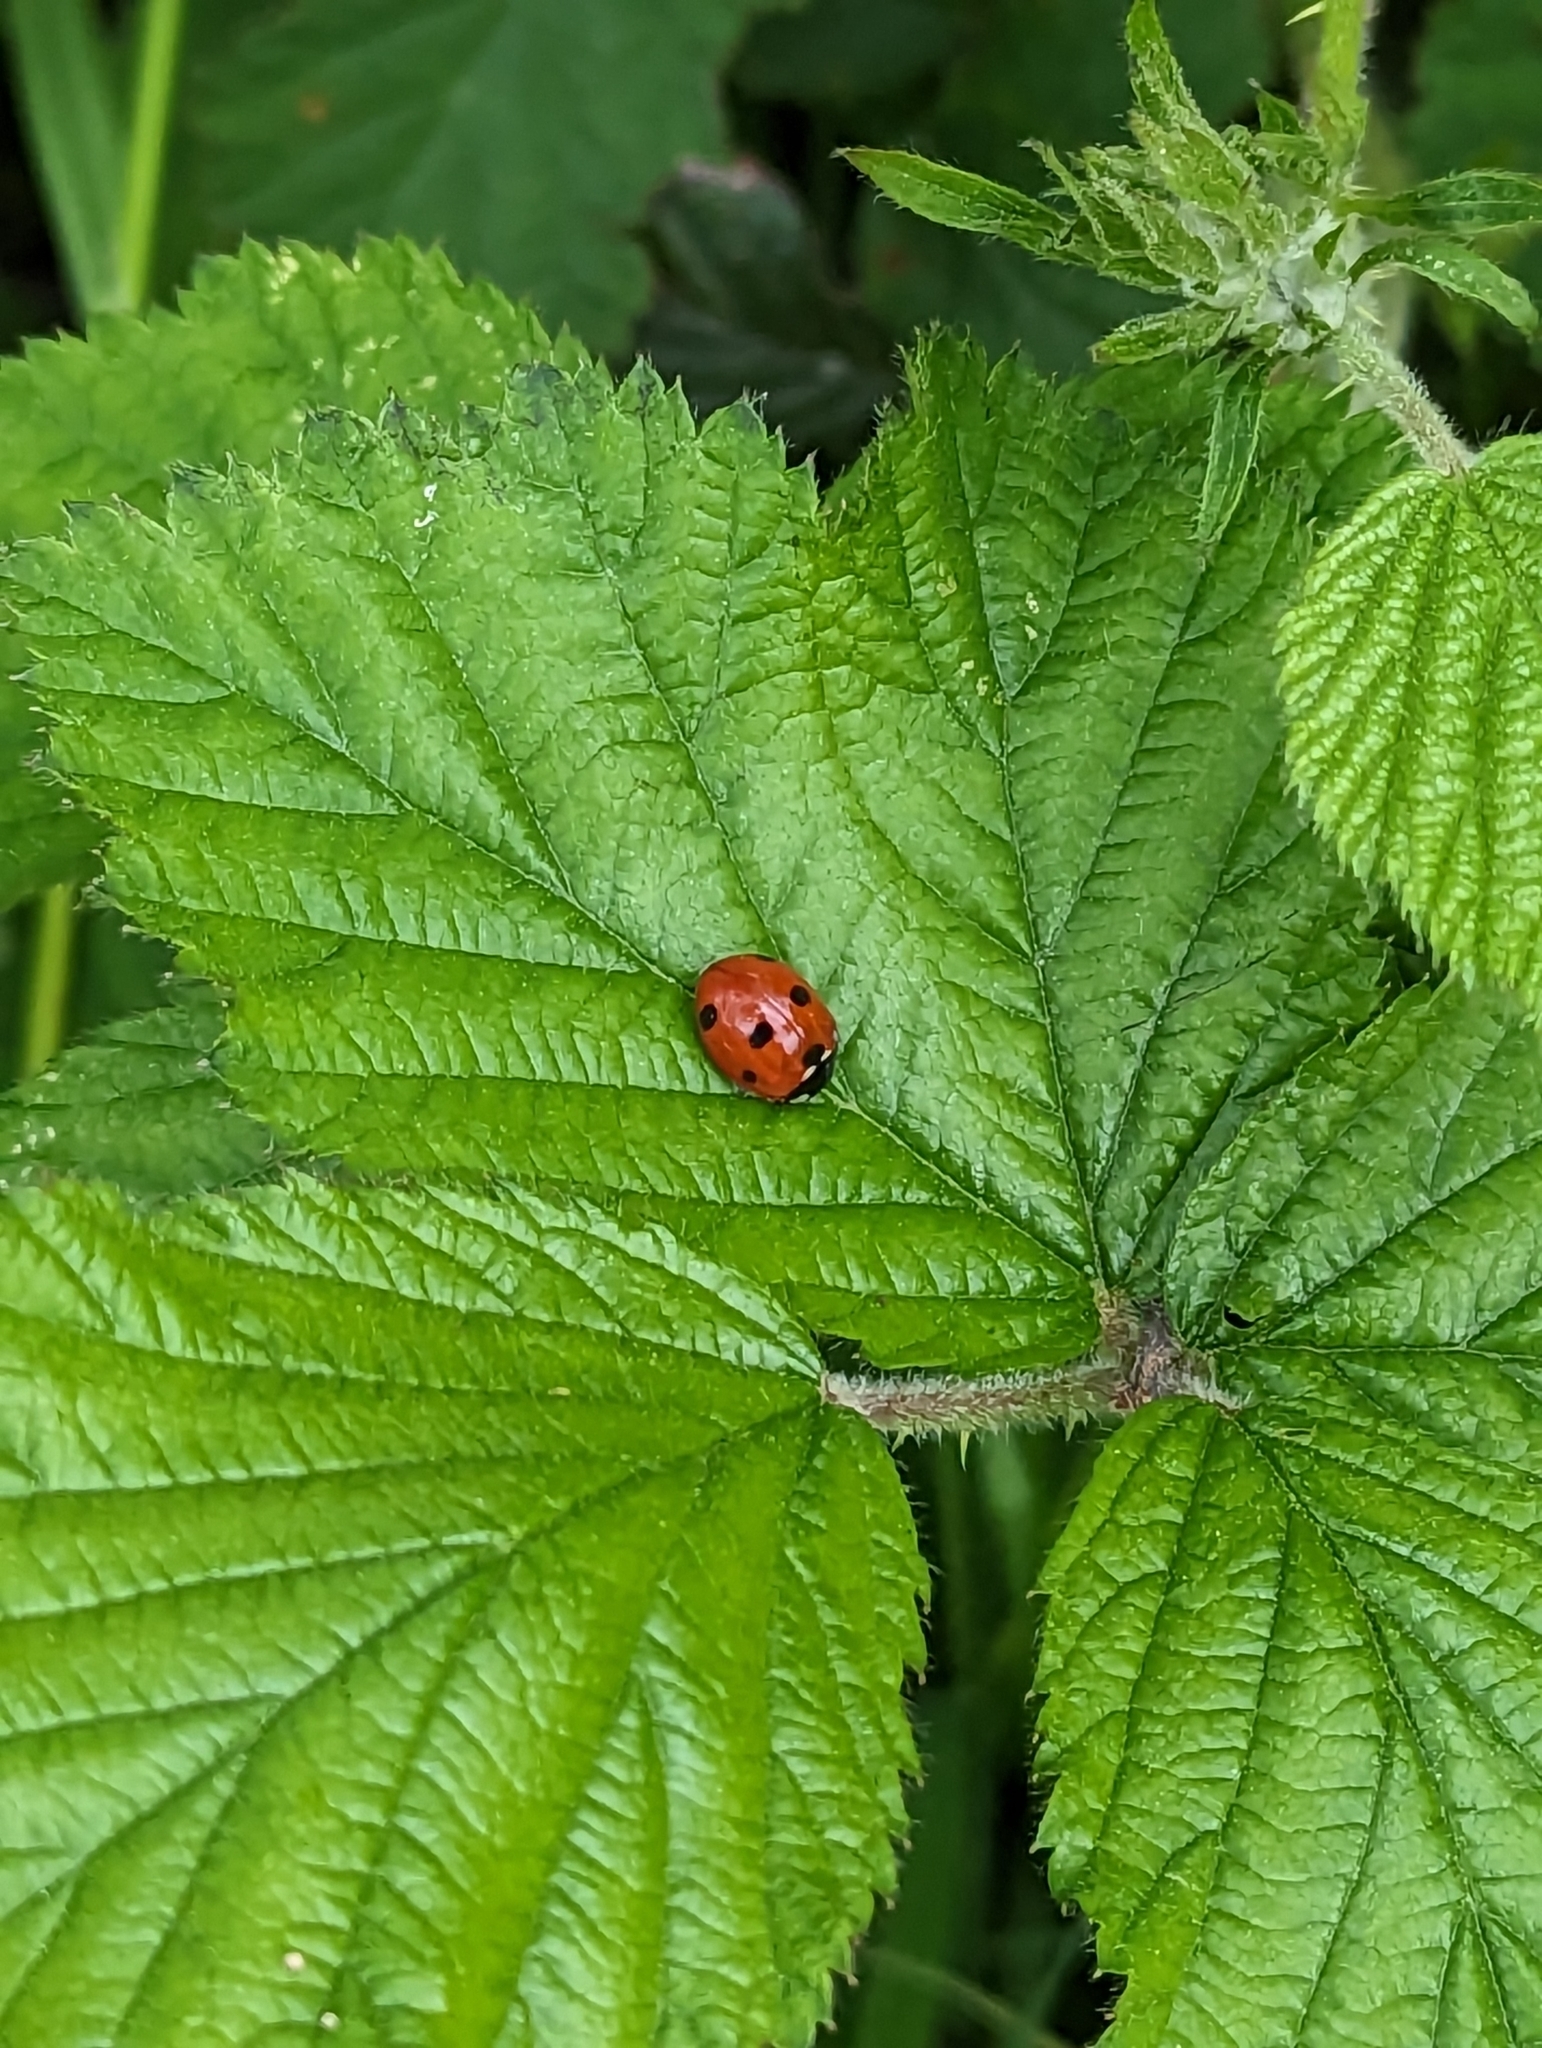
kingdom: Animalia
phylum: Arthropoda
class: Insecta
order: Coleoptera
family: Coccinellidae
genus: Coccinella
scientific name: Coccinella septempunctata
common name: Sevenspotted lady beetle
